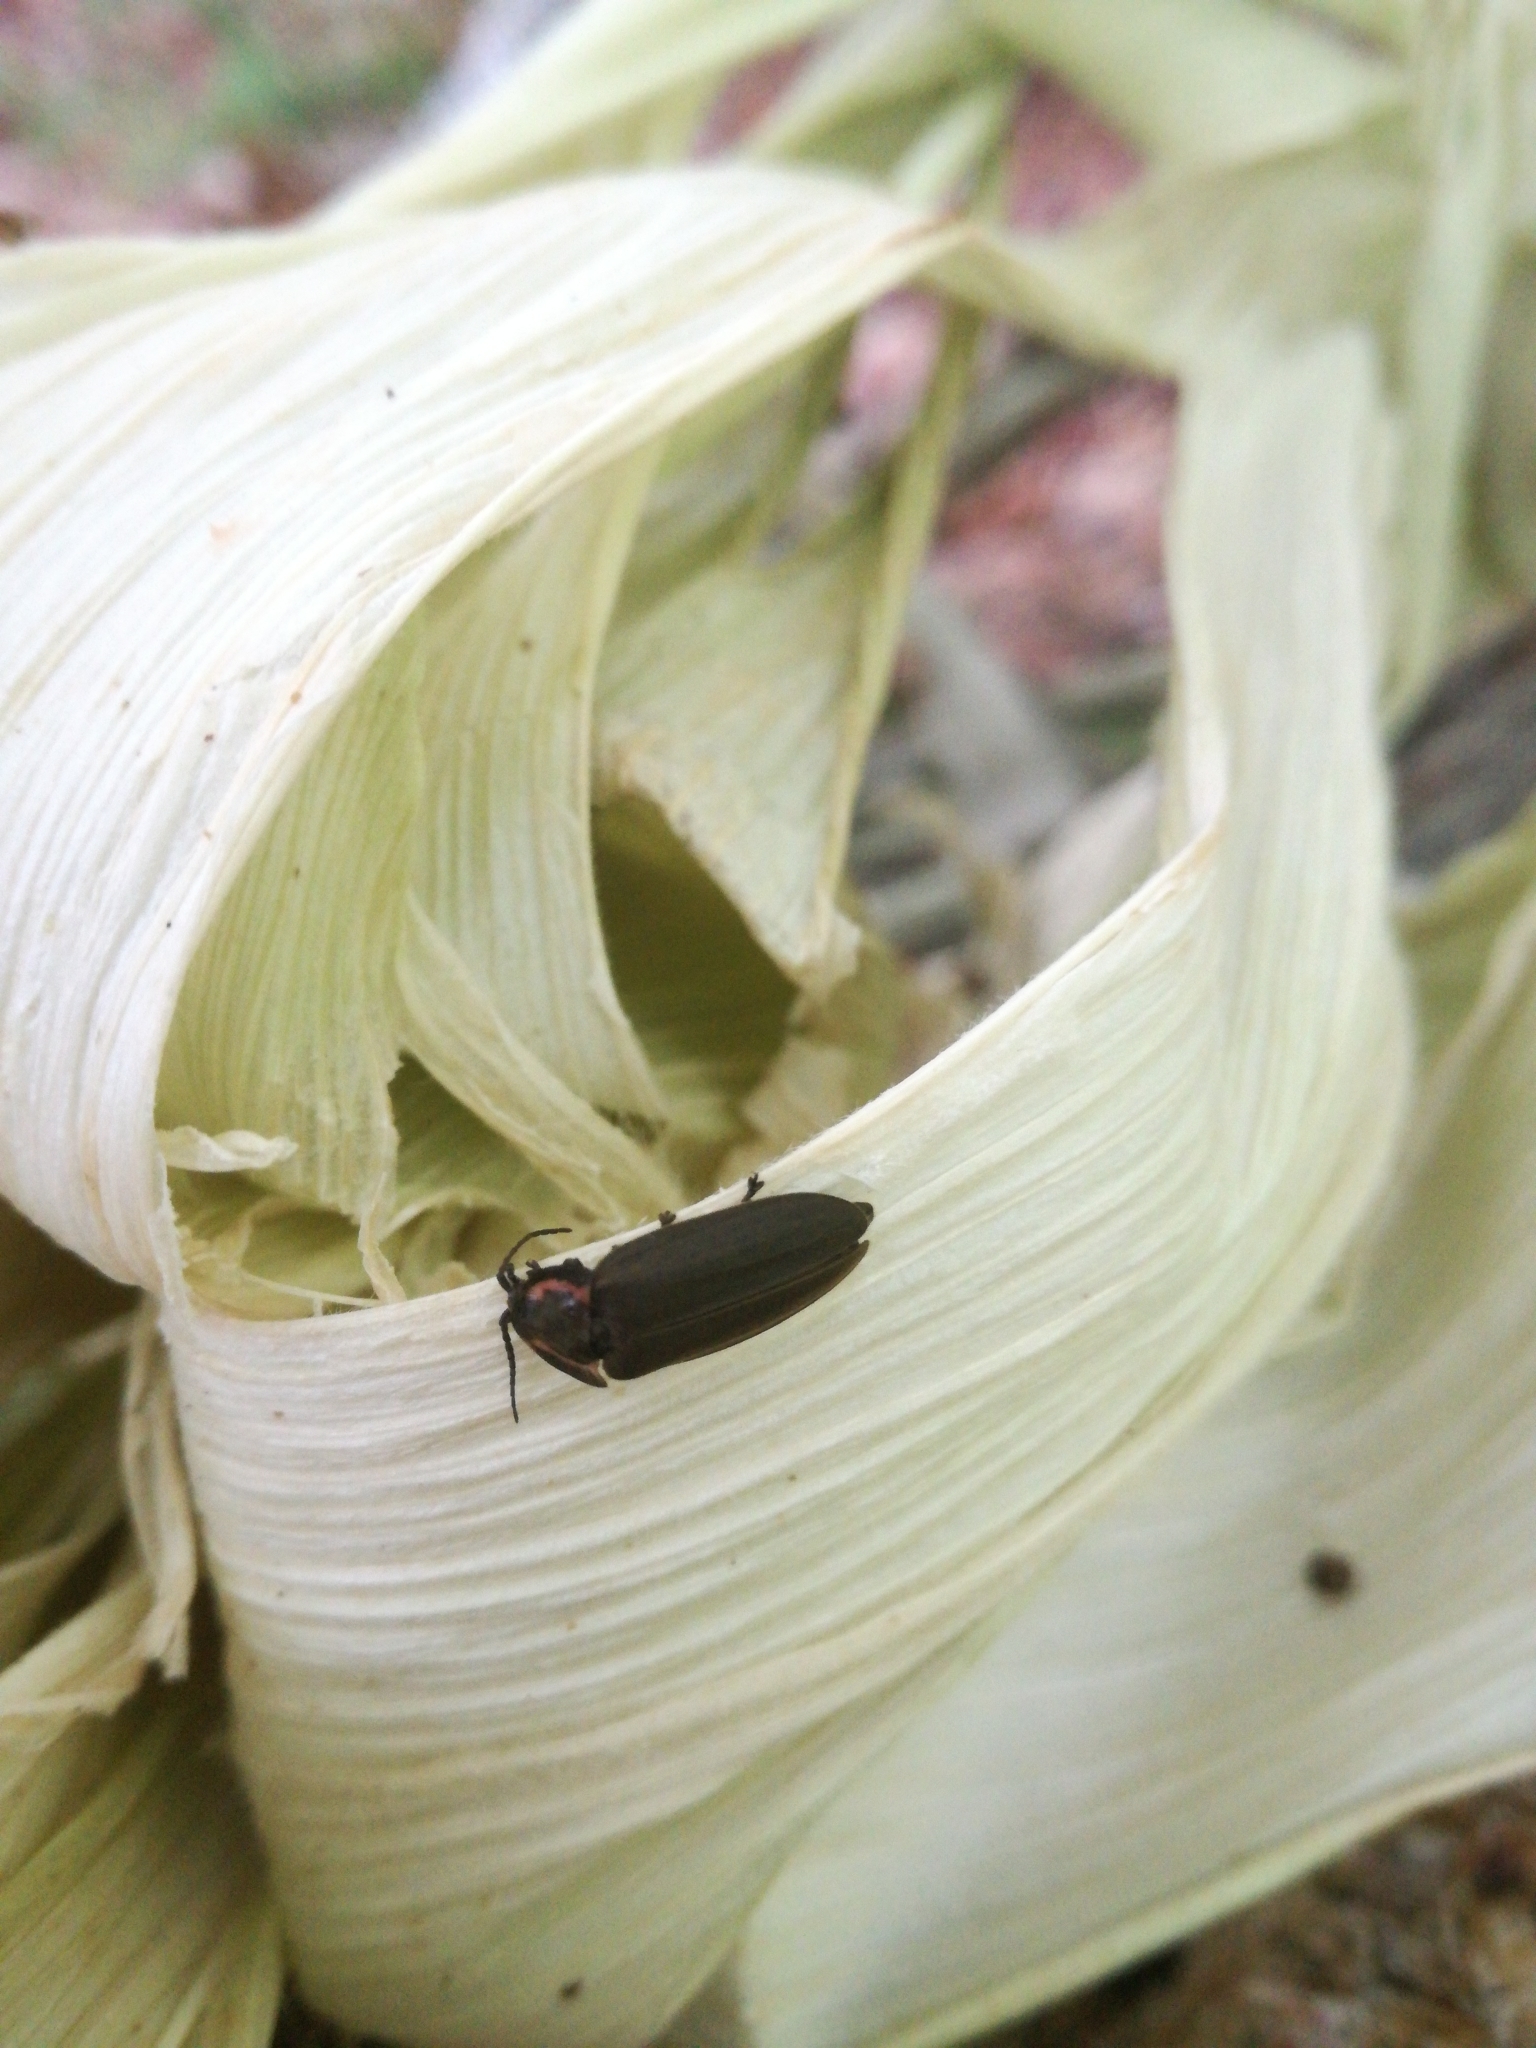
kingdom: Animalia
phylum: Arthropoda
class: Insecta
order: Coleoptera
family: Lampyridae
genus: Photinus
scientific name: Photinus corrusca
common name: Winter firefly
